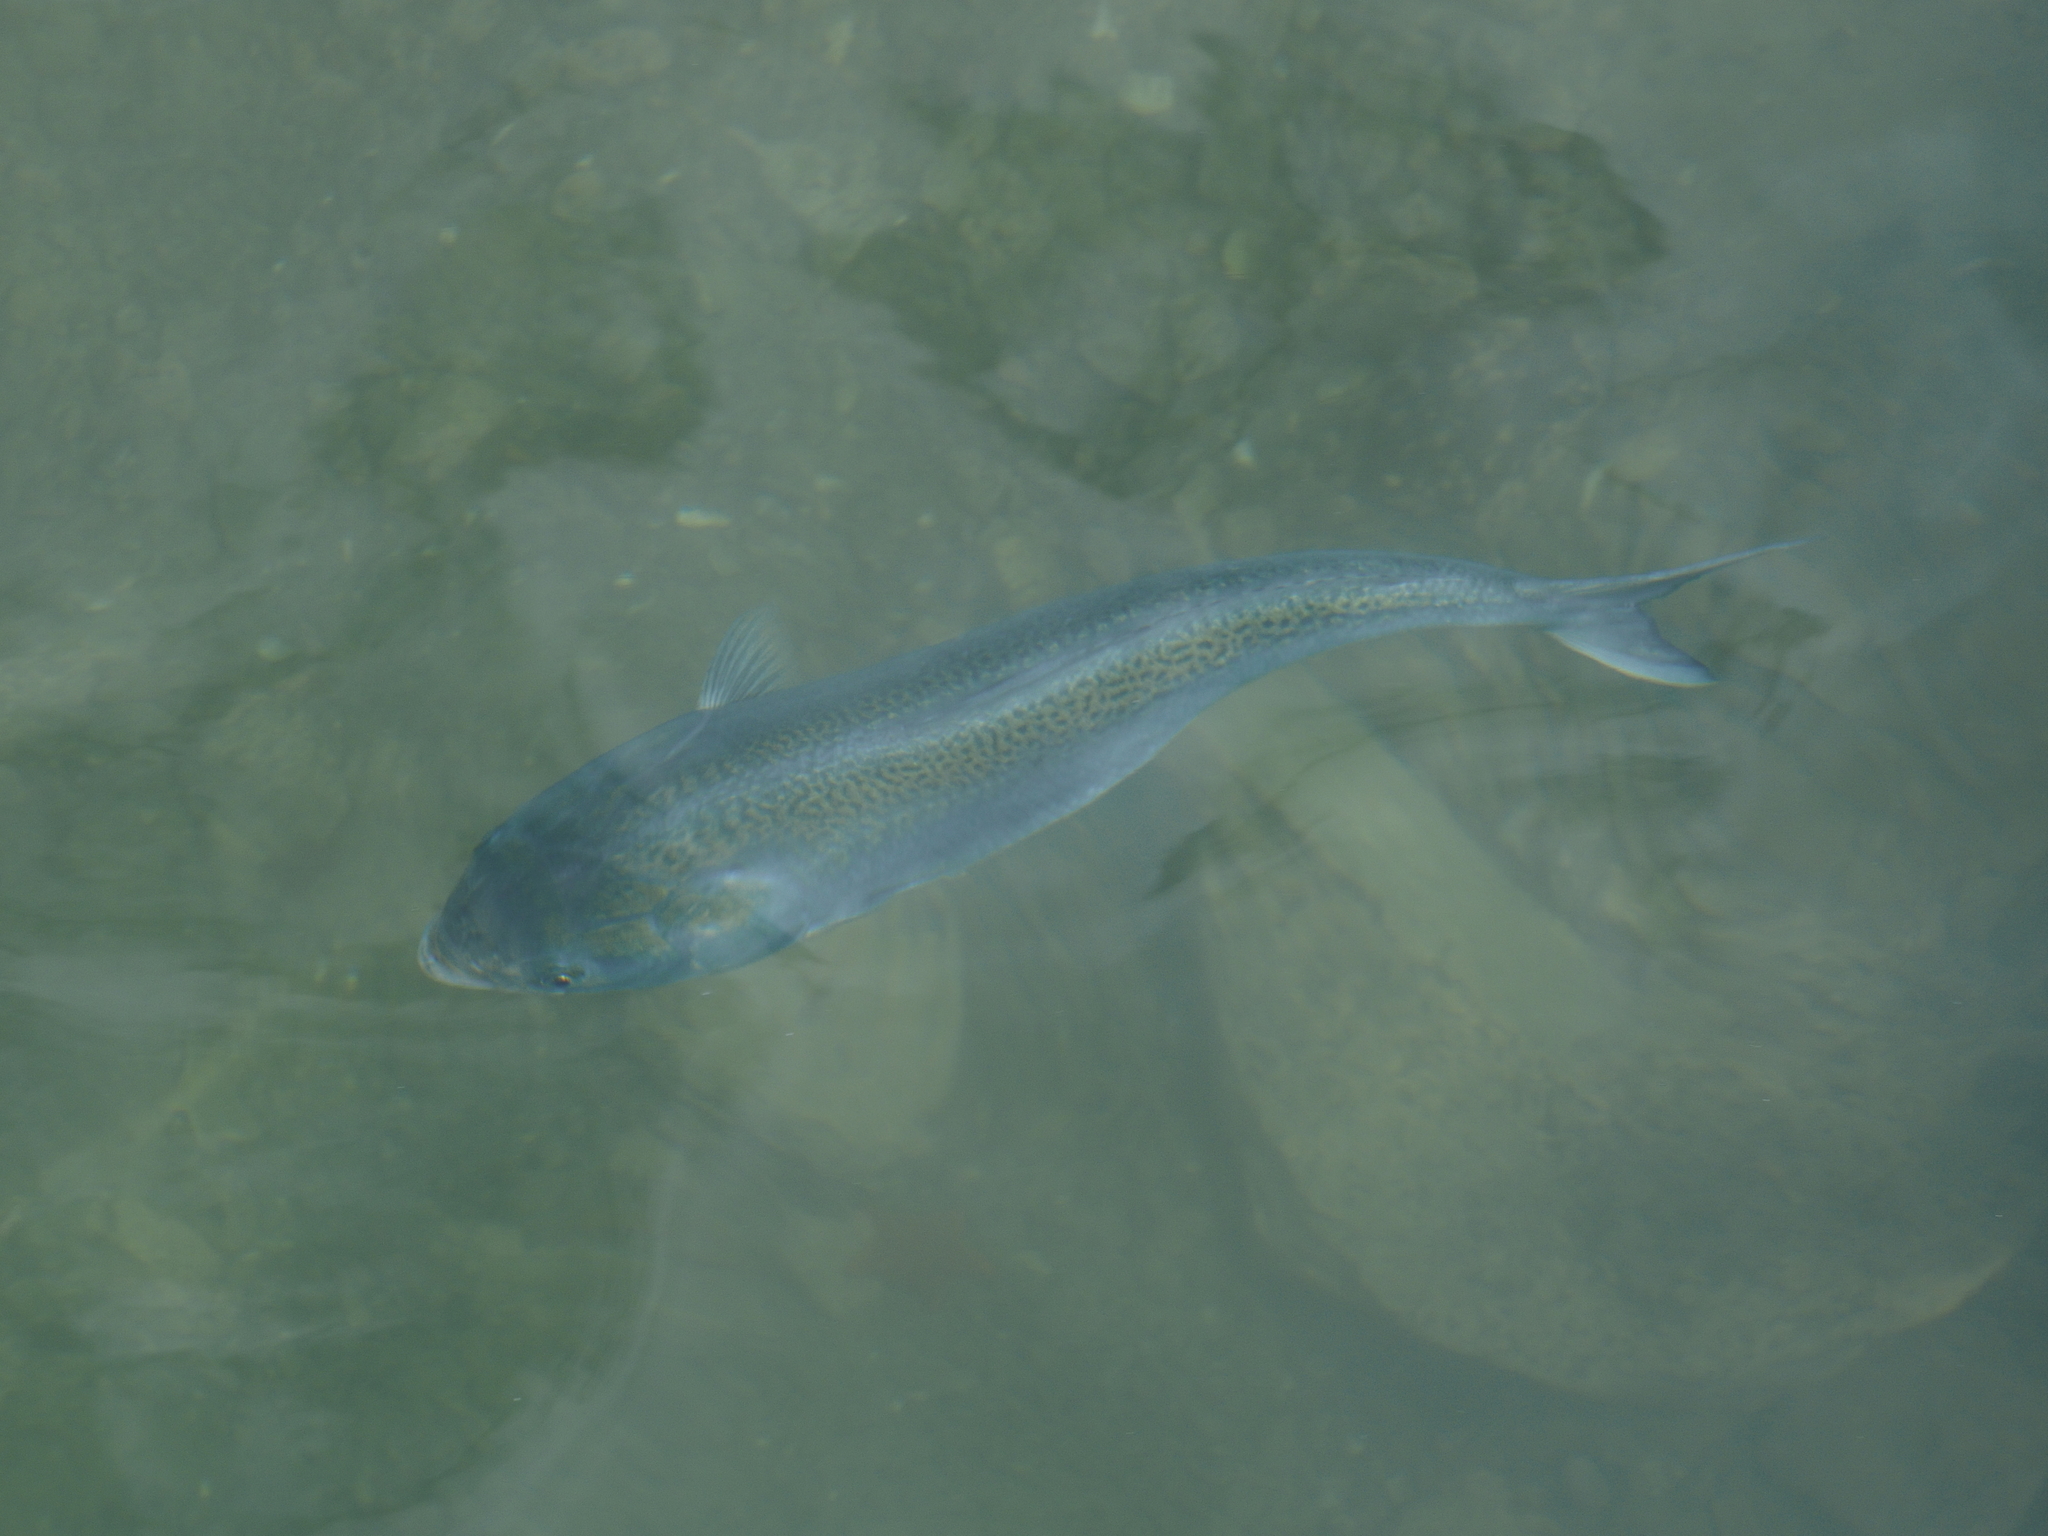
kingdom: Animalia
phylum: Chordata
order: Perciformes
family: Arripidae
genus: Arripis
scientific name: Arripis trutta
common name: Kahawai
